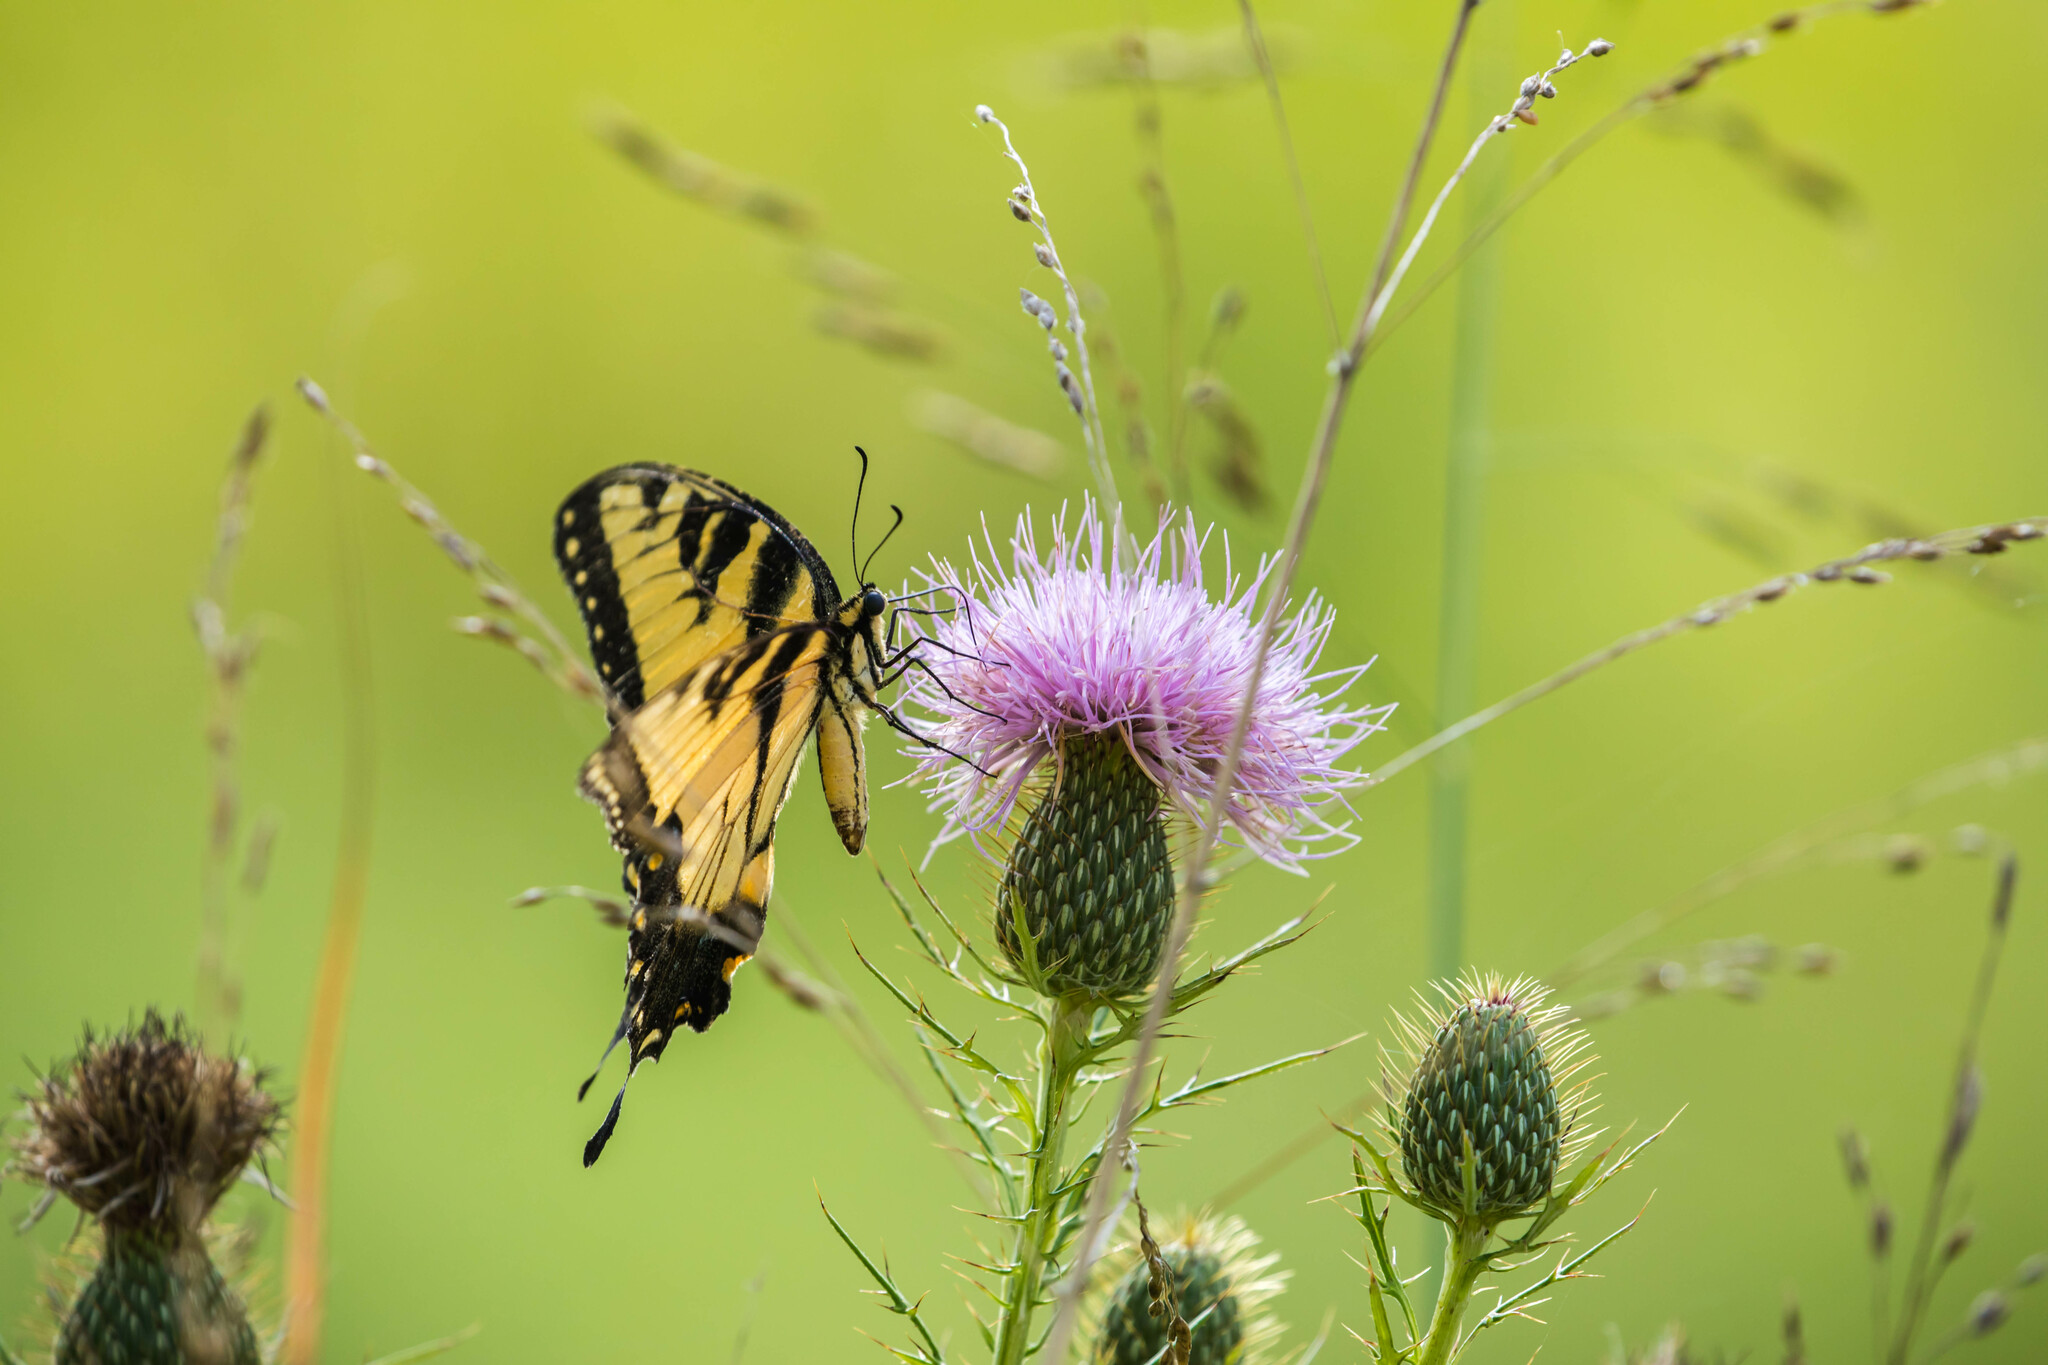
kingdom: Animalia
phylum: Arthropoda
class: Insecta
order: Lepidoptera
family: Papilionidae
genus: Papilio
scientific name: Papilio glaucus
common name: Tiger swallowtail
